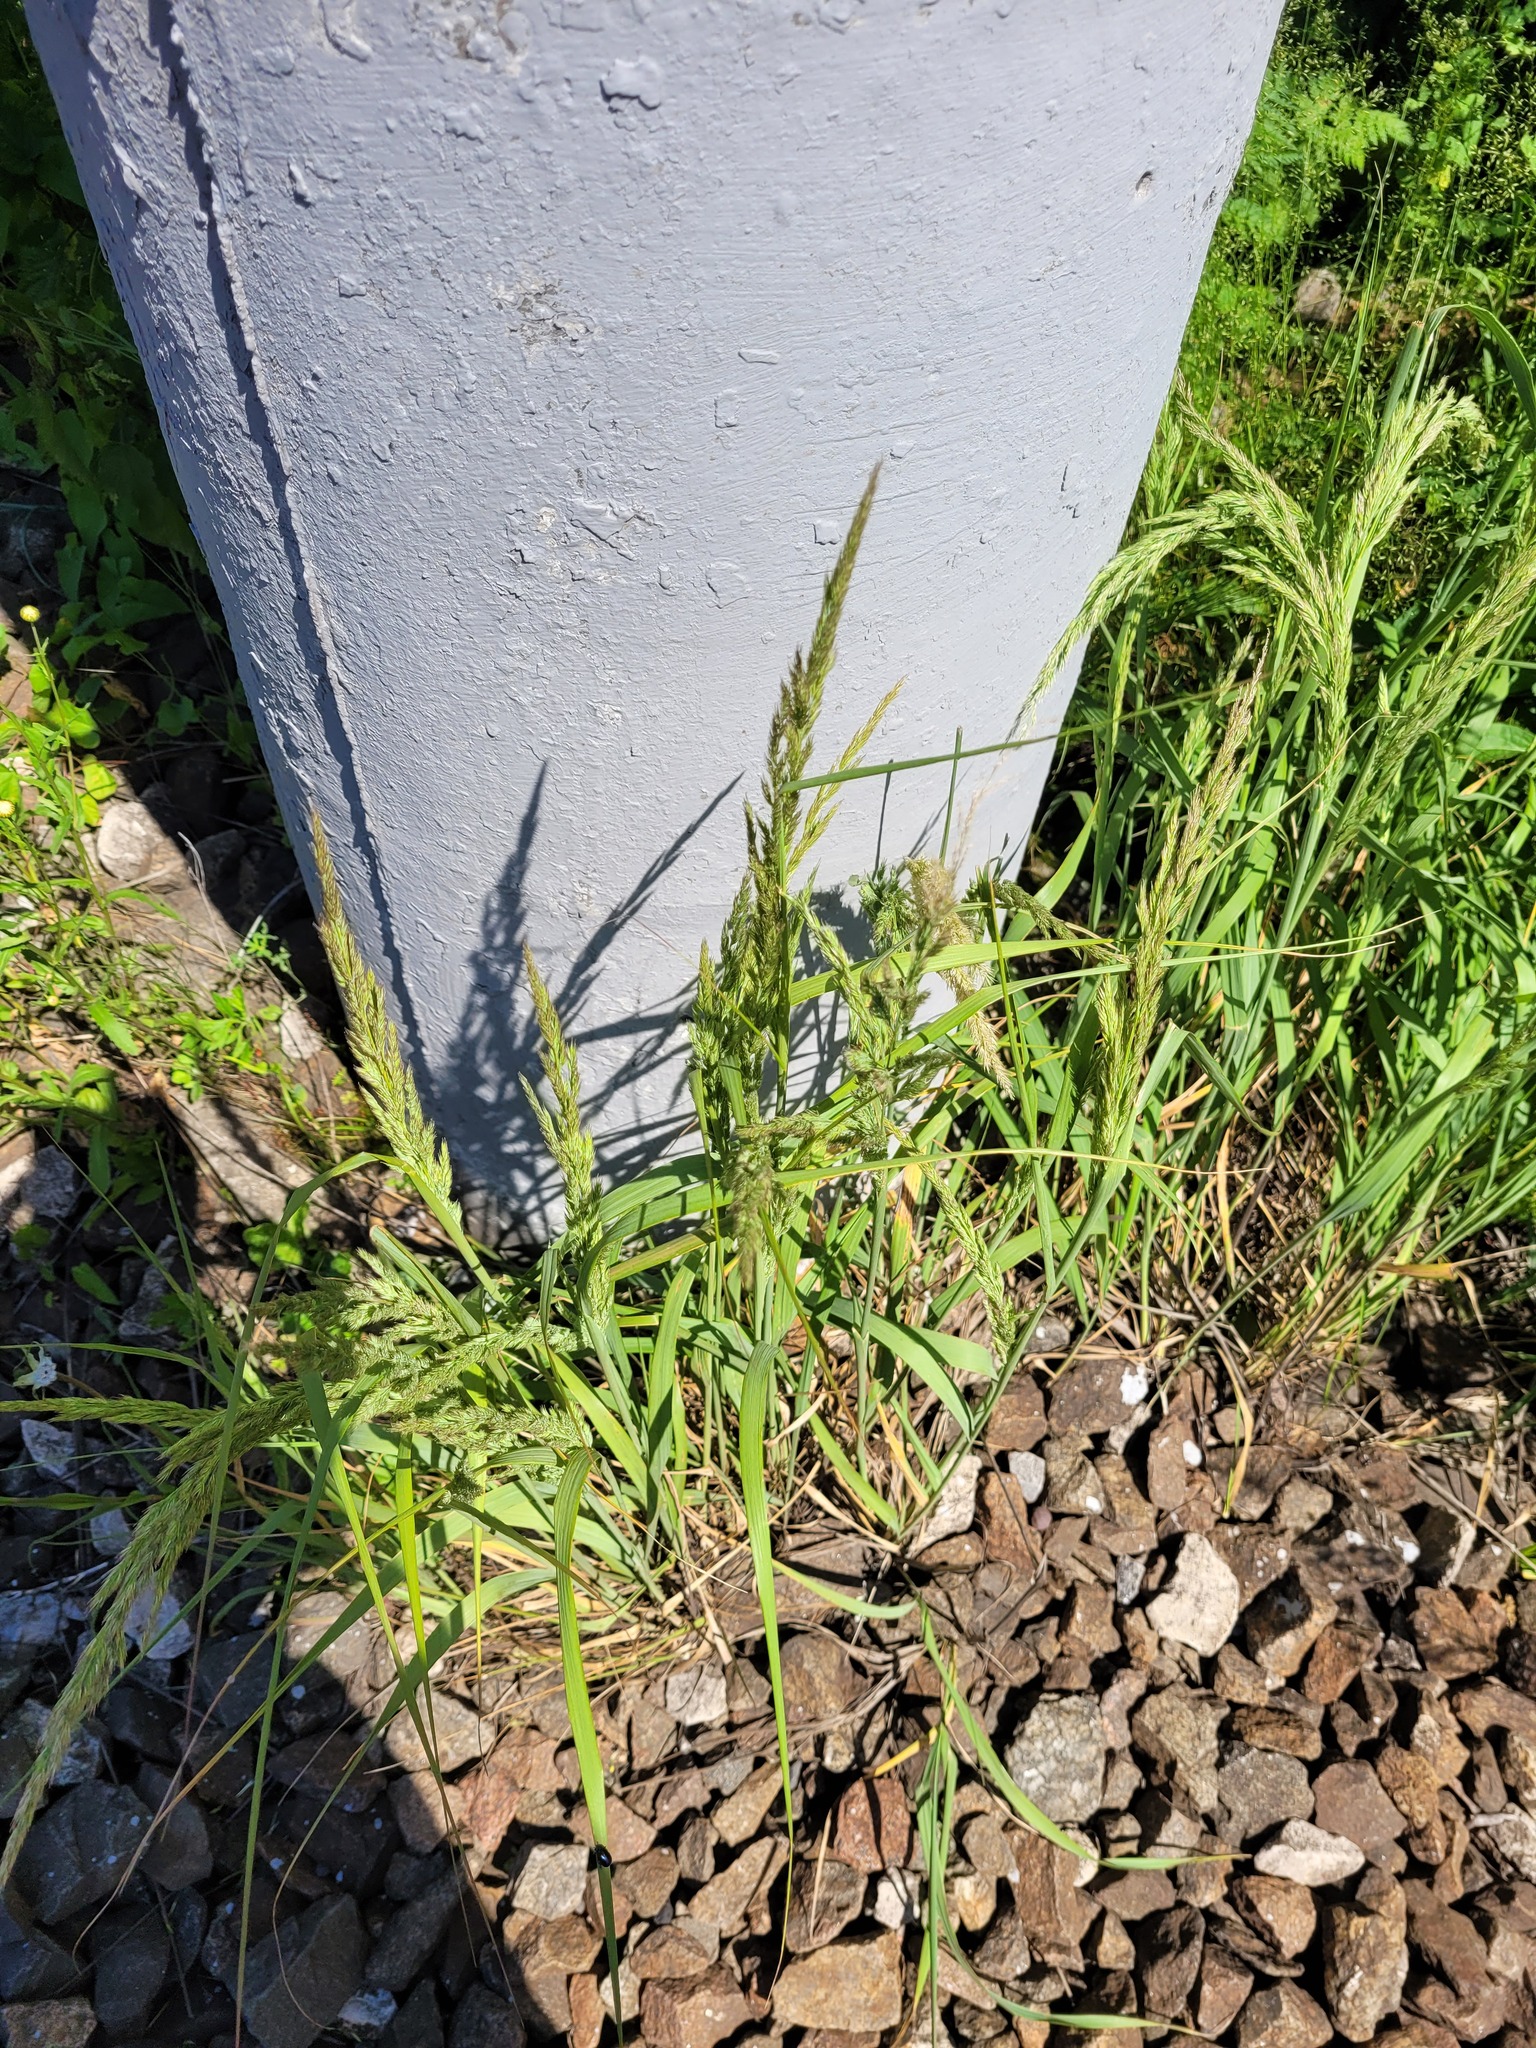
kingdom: Plantae
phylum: Tracheophyta
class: Liliopsida
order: Poales
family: Poaceae
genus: Calamagrostis
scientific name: Calamagrostis epigejos
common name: Wood small-reed
